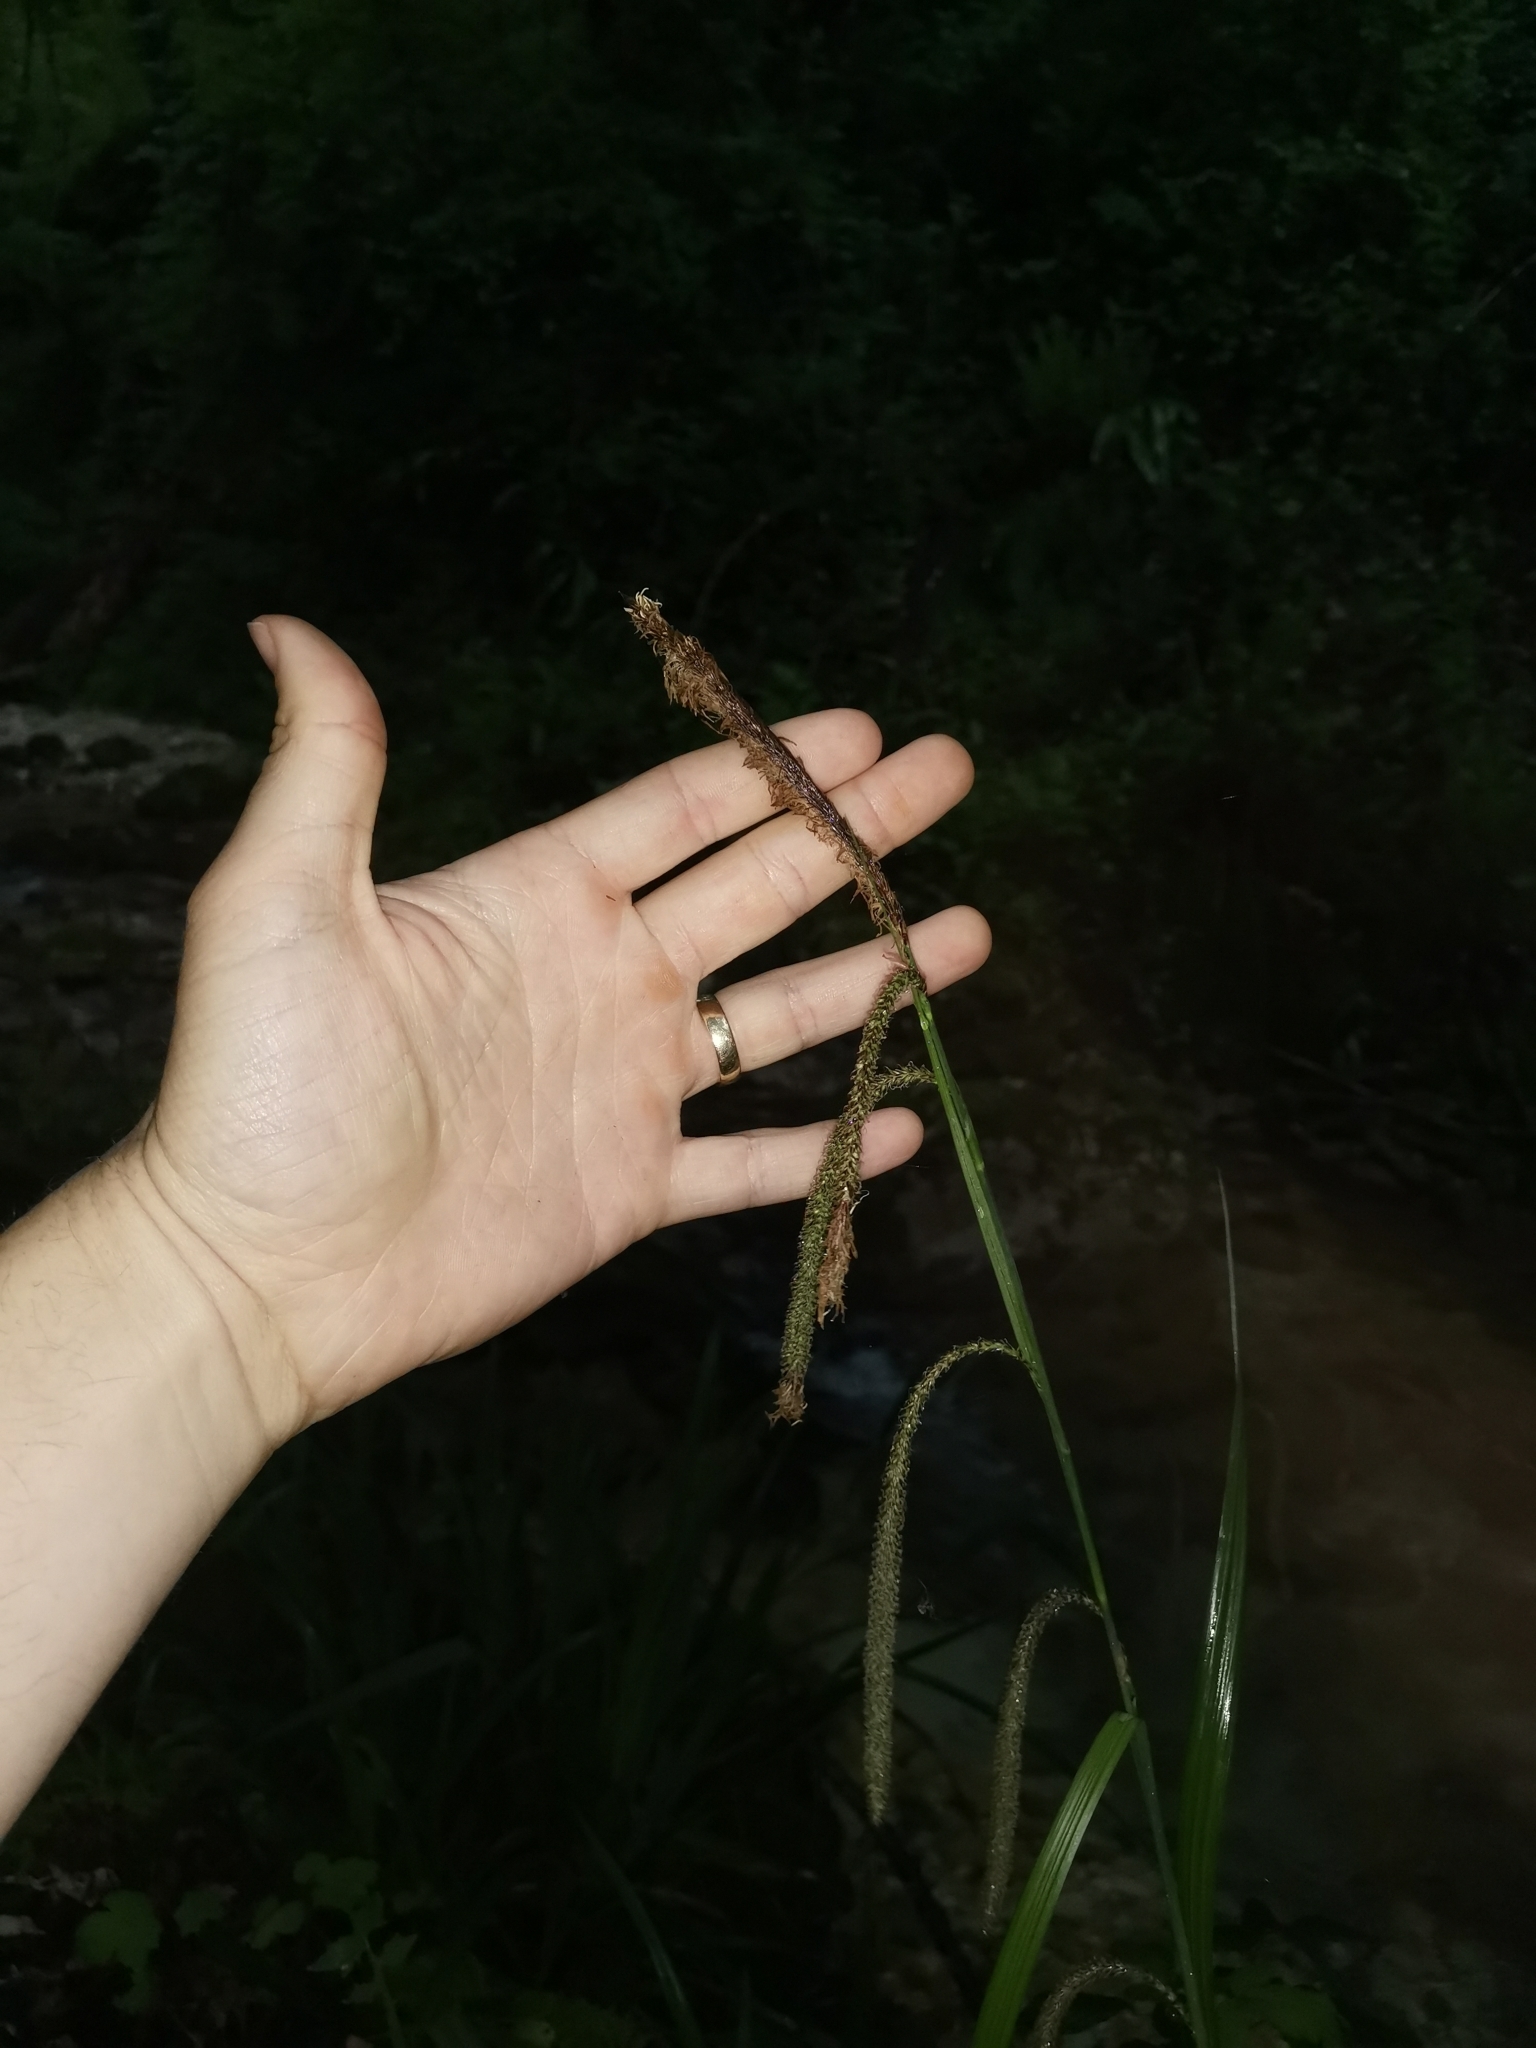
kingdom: Plantae
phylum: Tracheophyta
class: Liliopsida
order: Poales
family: Cyperaceae
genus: Carex
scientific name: Carex pendula
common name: Pendulous sedge
